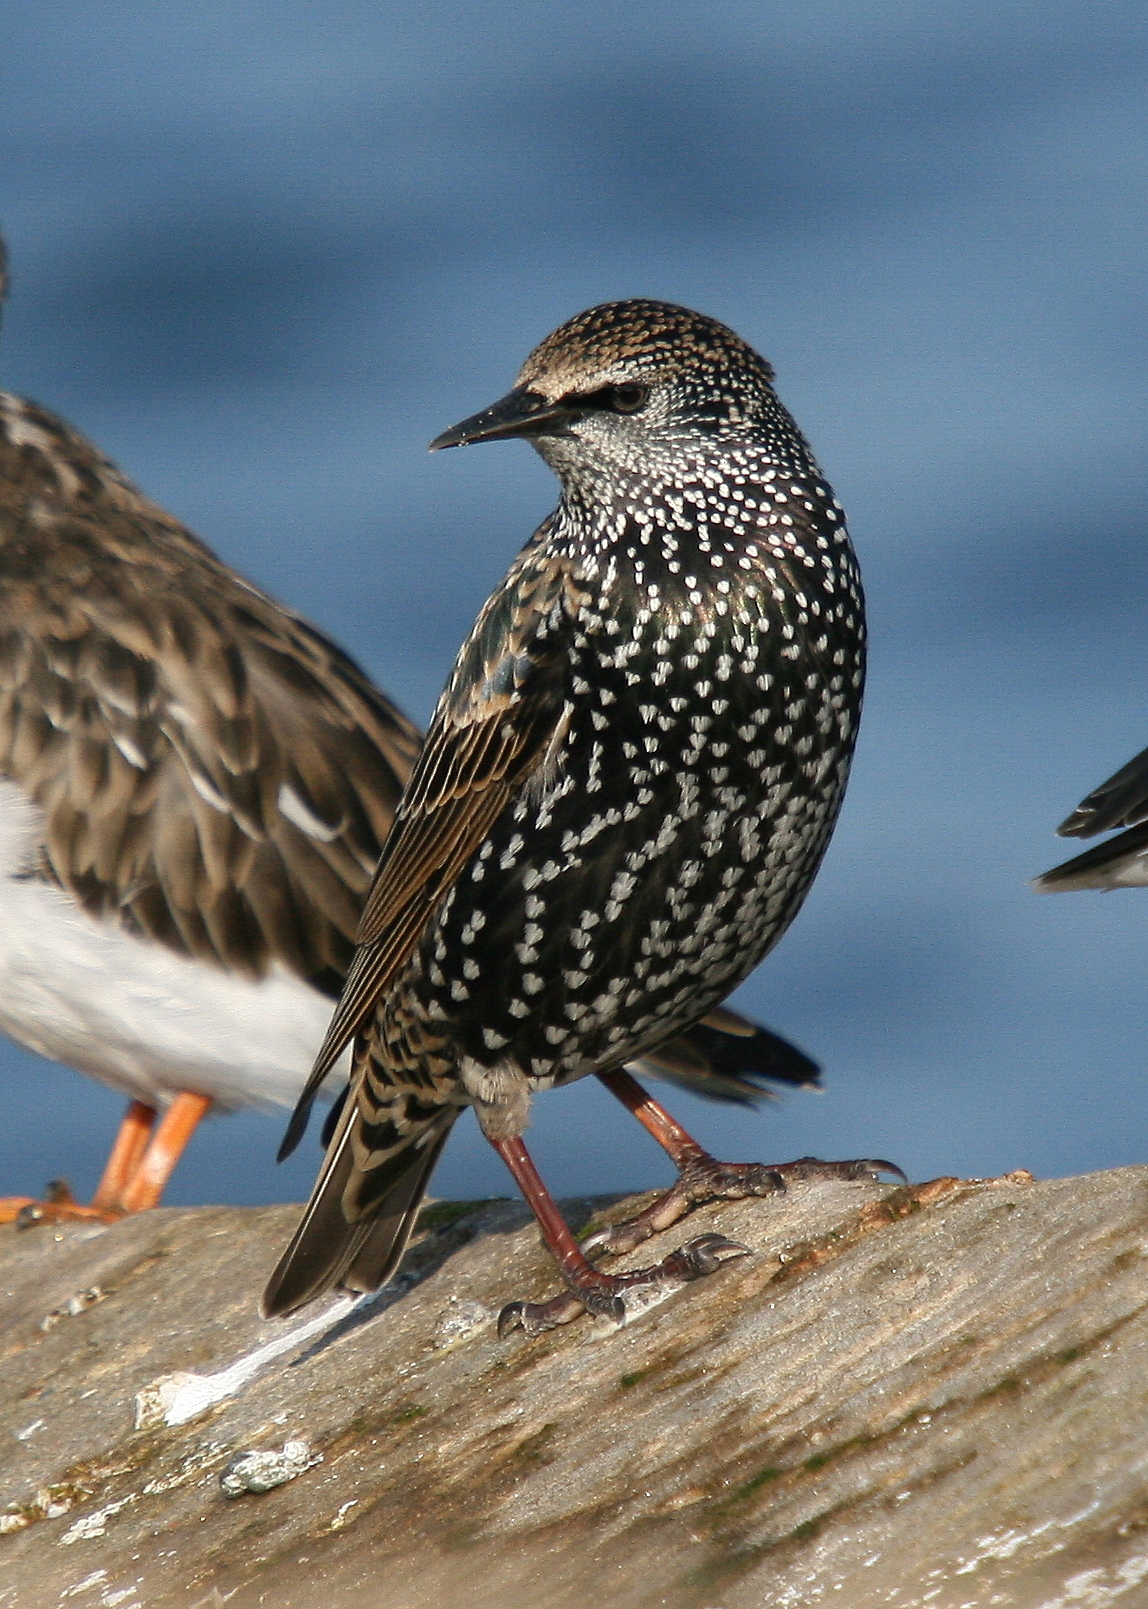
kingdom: Animalia
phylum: Chordata
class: Aves
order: Passeriformes
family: Sturnidae
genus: Sturnus
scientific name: Sturnus vulgaris
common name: Common starling
